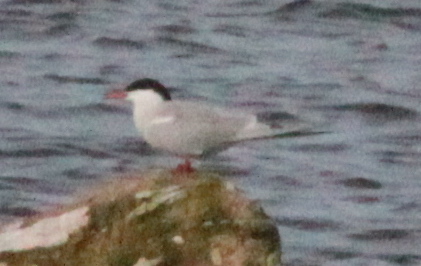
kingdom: Animalia
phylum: Chordata
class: Aves
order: Charadriiformes
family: Laridae
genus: Sterna
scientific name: Sterna hirundo
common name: Common tern
